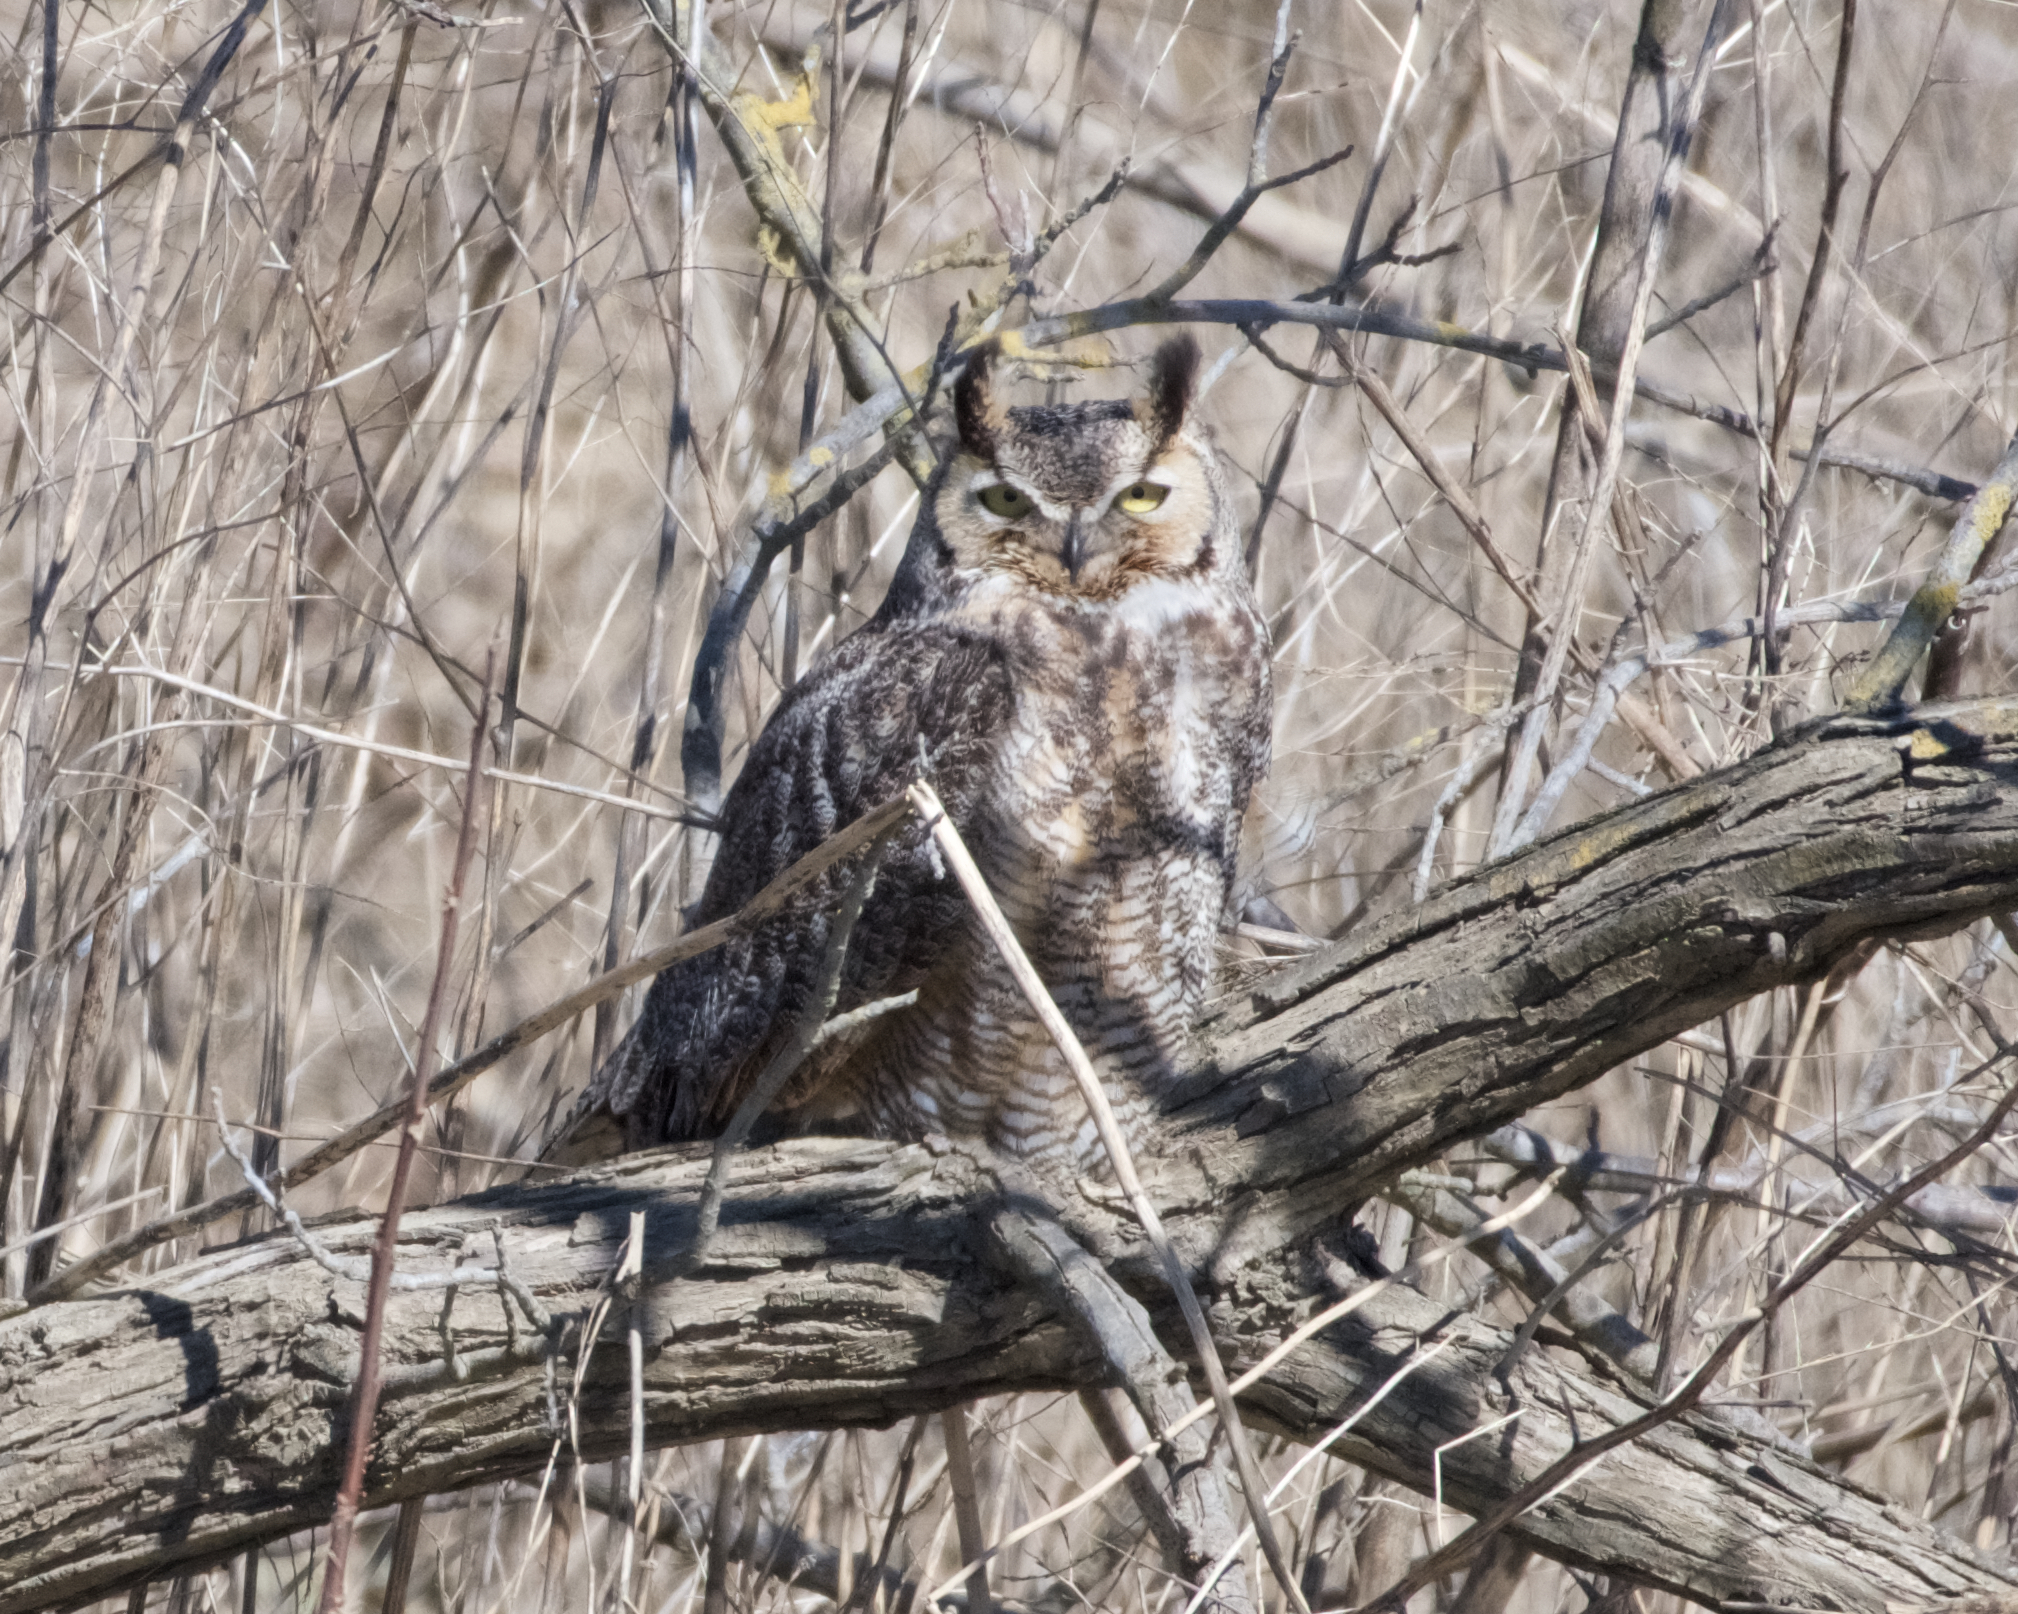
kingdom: Animalia
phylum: Chordata
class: Aves
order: Strigiformes
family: Strigidae
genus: Bubo
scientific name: Bubo virginianus
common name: Great horned owl
